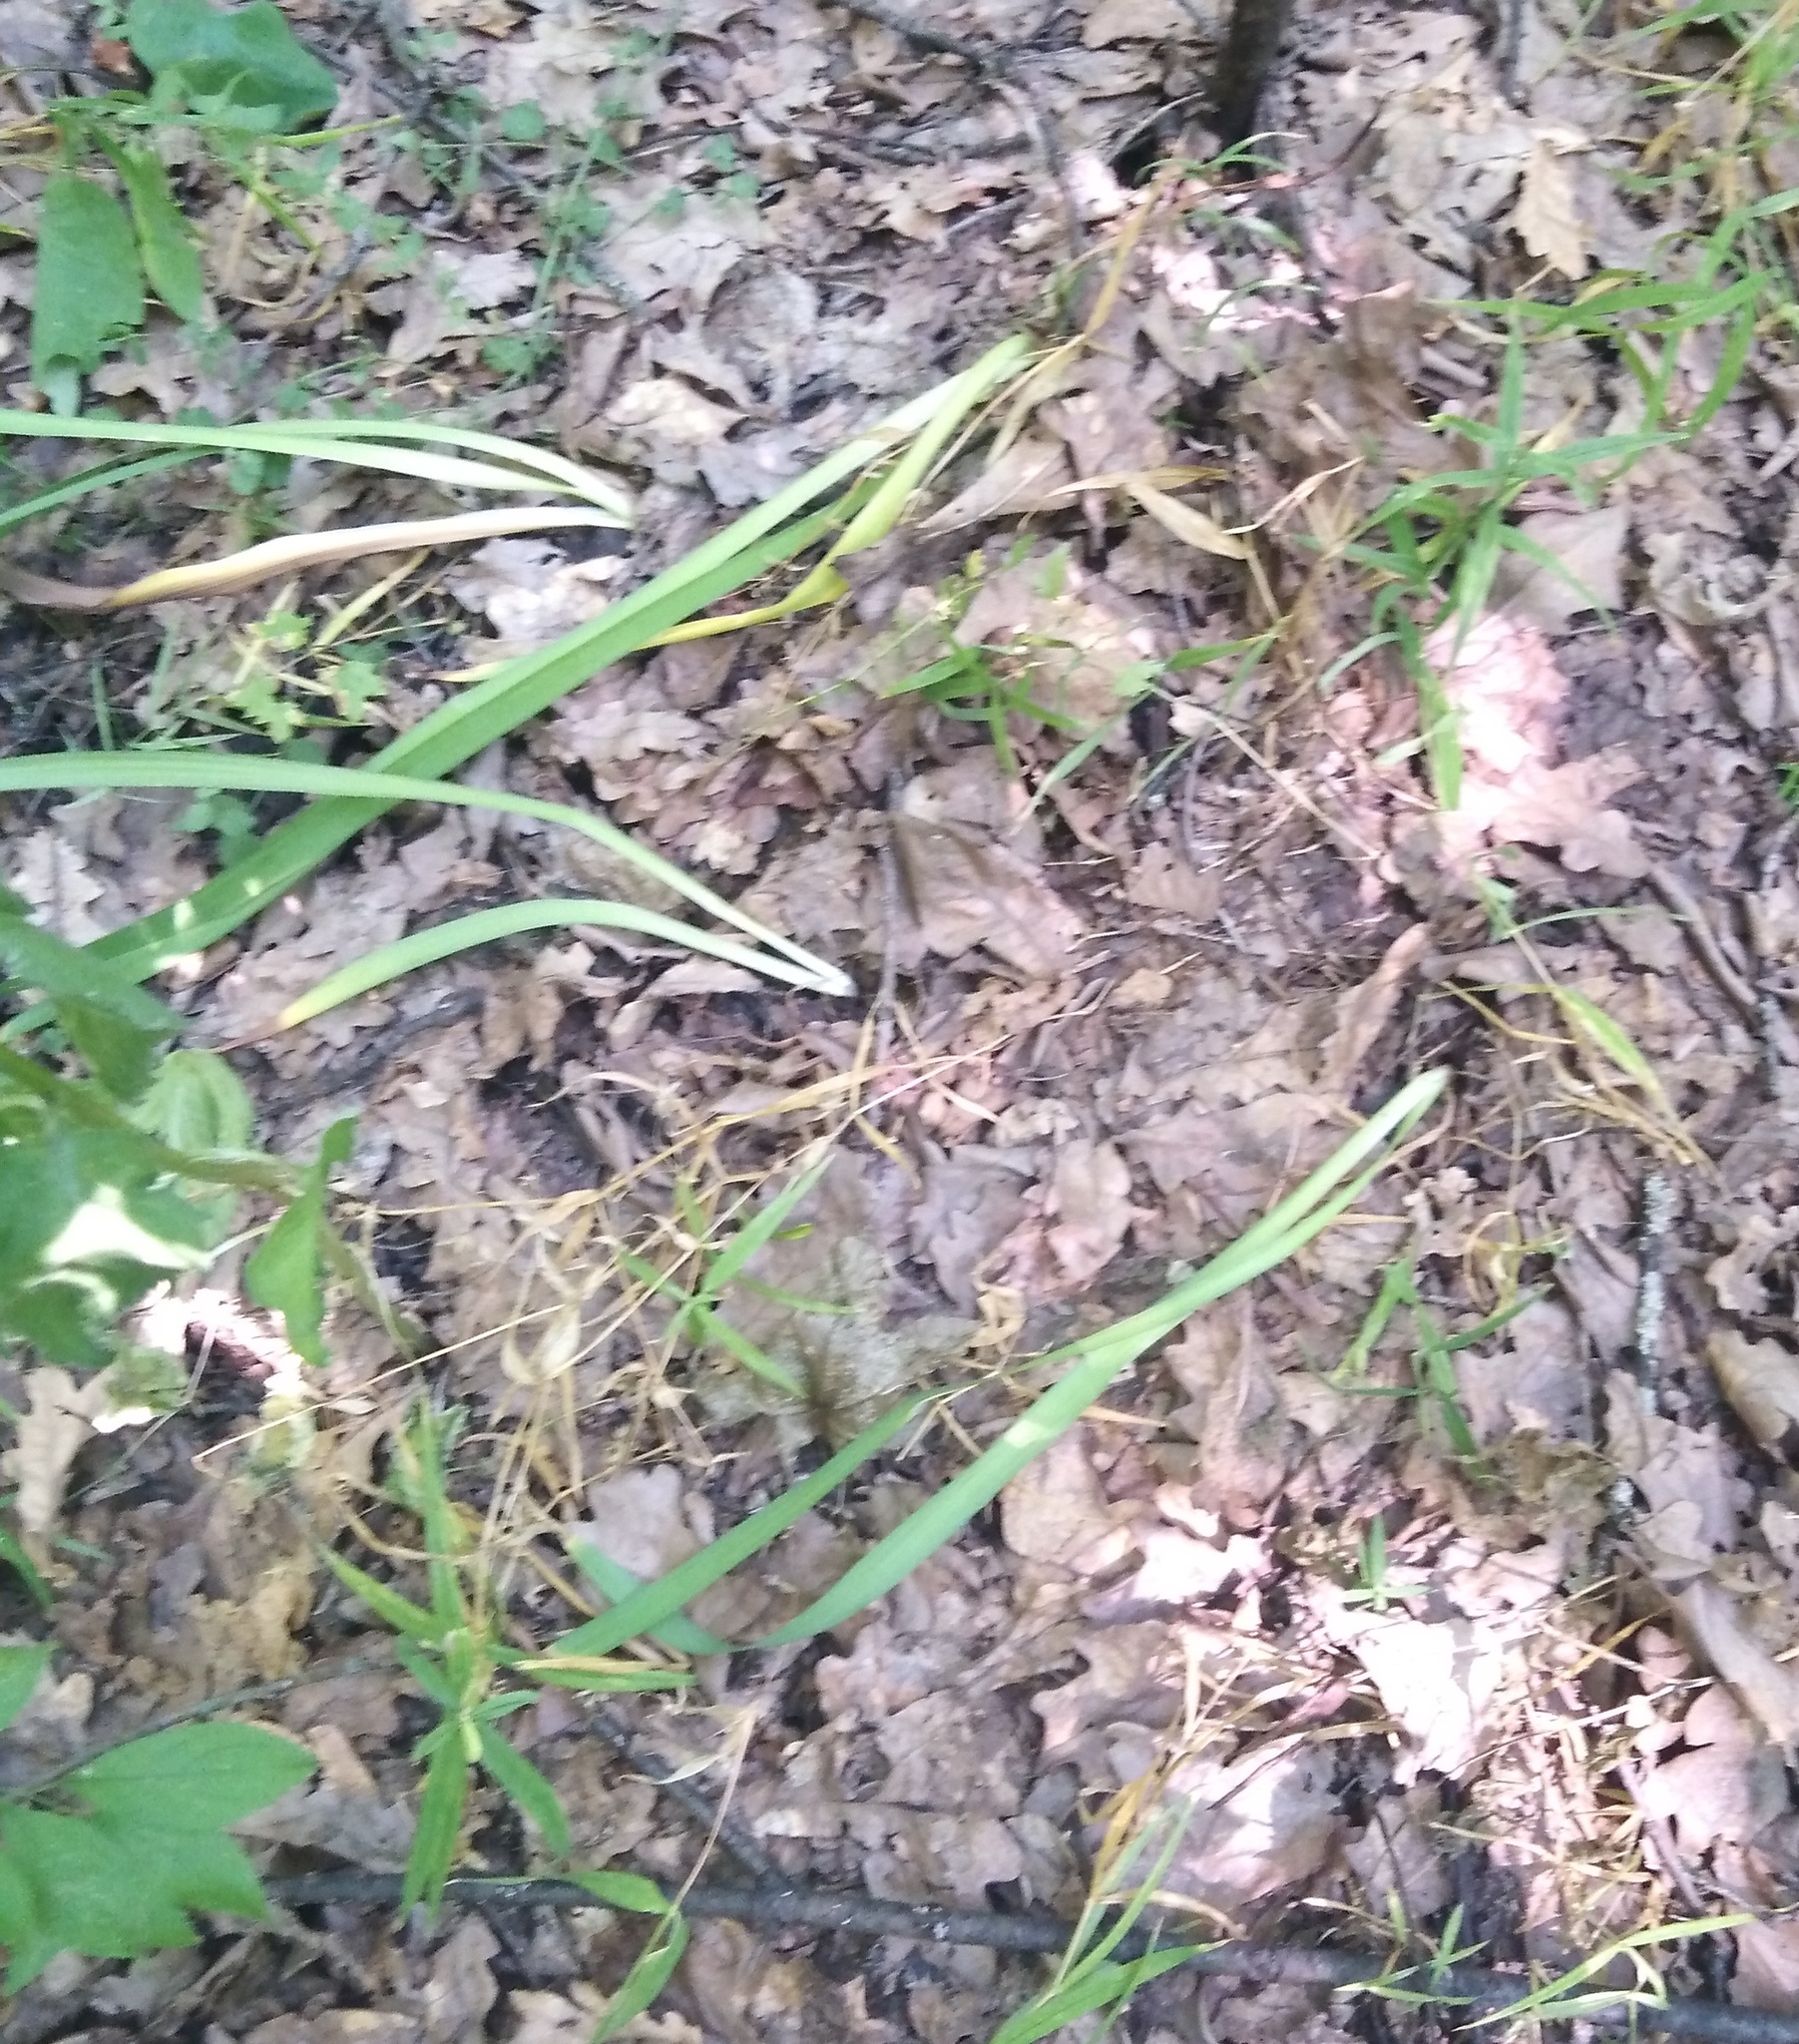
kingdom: Plantae
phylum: Tracheophyta
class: Liliopsida
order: Asparagales
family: Iridaceae
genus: Iris
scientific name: Iris aphylla
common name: Stool iris
